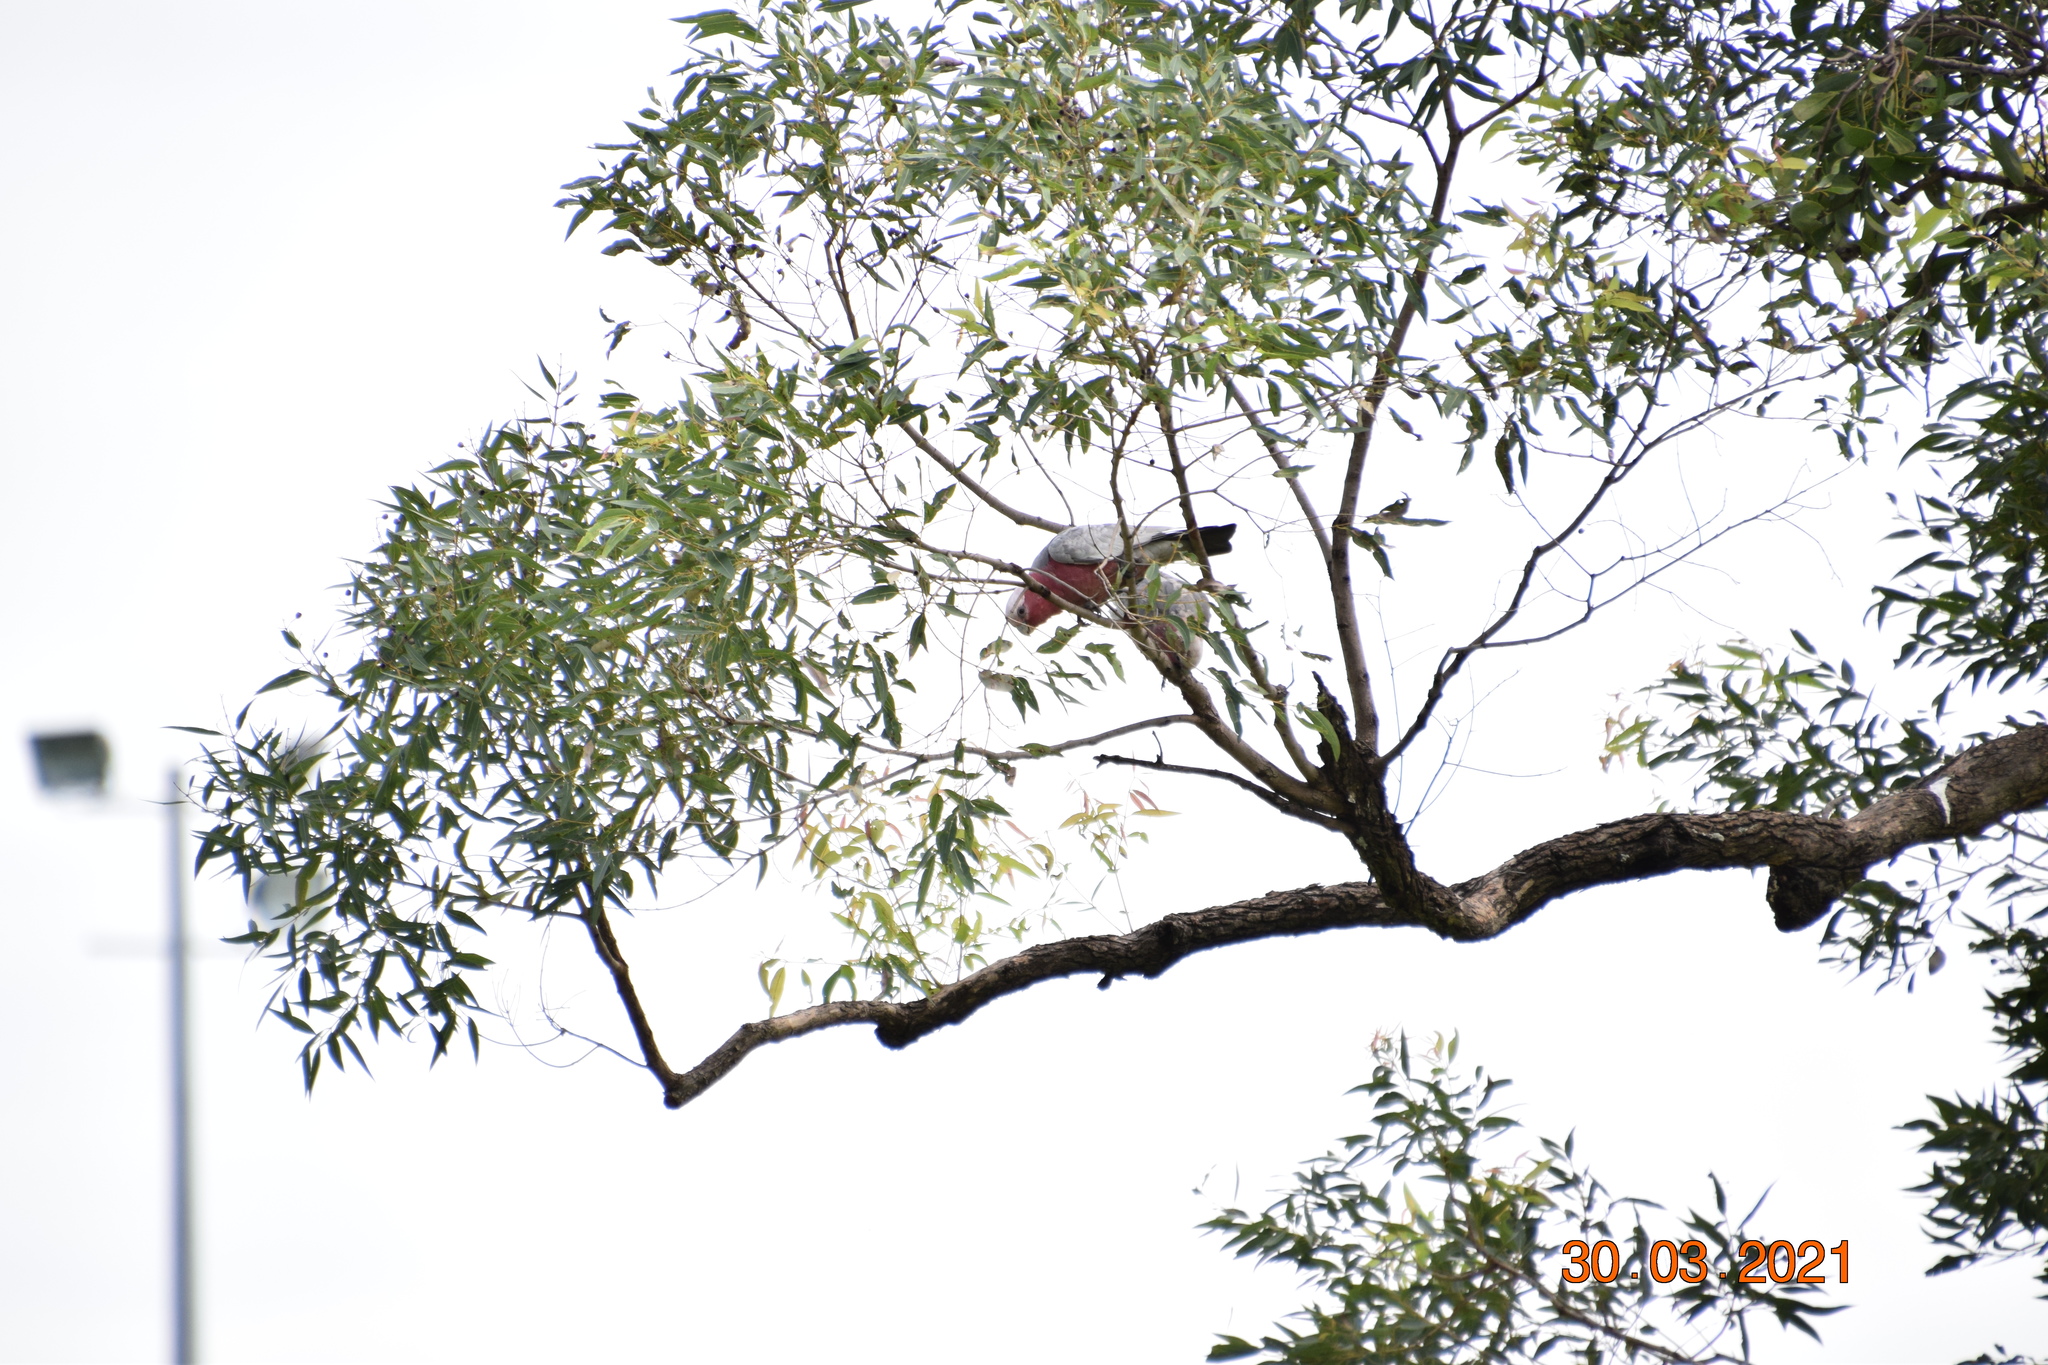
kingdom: Animalia
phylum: Chordata
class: Aves
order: Psittaciformes
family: Psittacidae
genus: Eolophus
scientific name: Eolophus roseicapilla
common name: Galah
